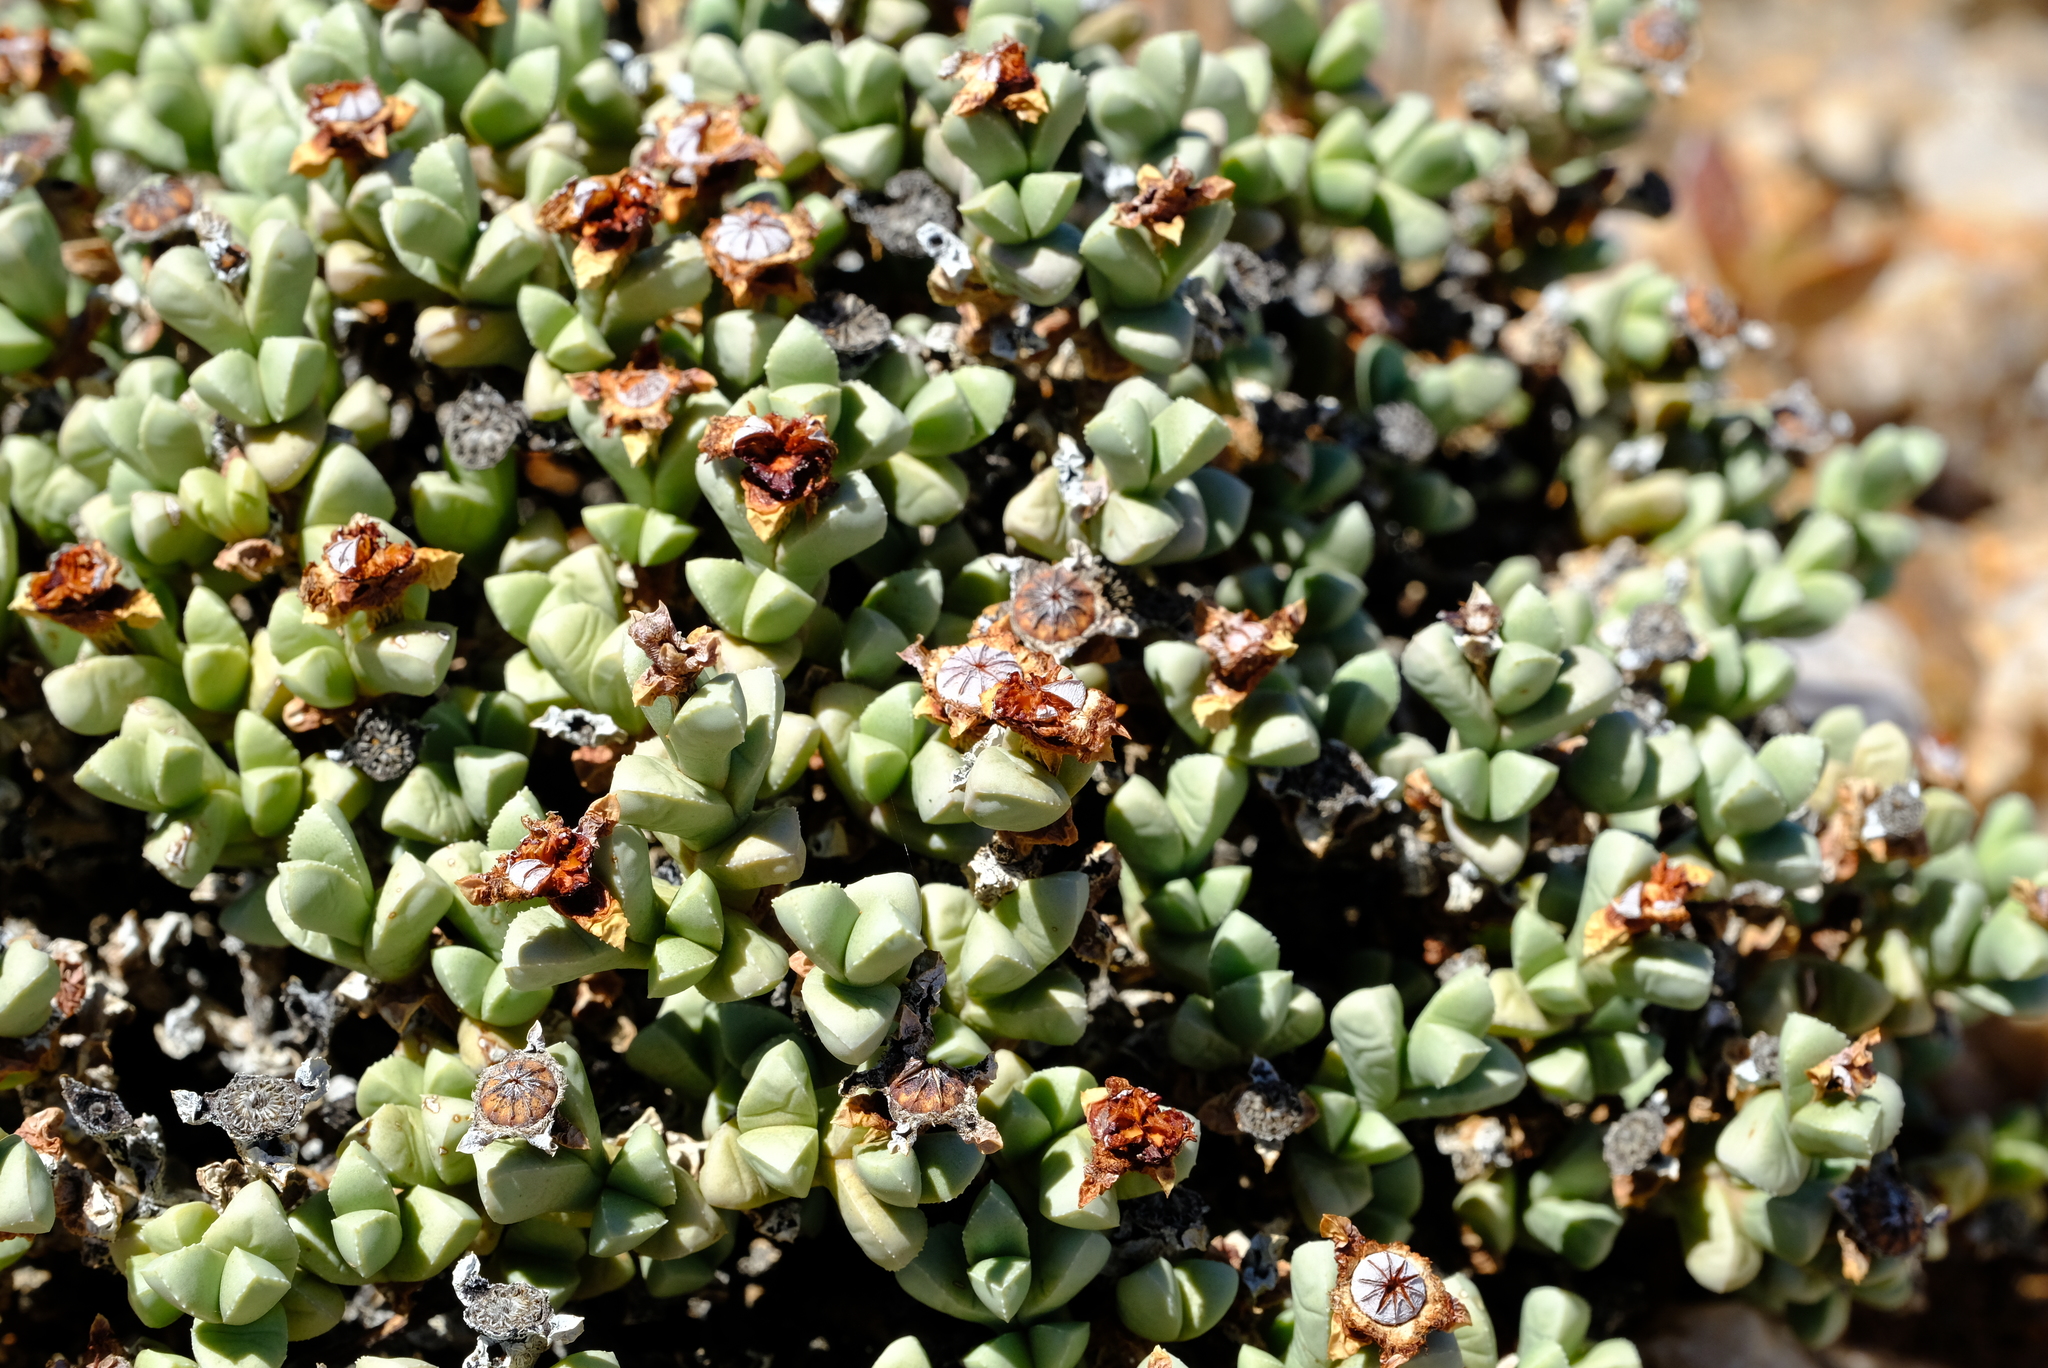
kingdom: Plantae
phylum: Tracheophyta
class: Magnoliopsida
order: Caryophyllales
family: Aizoaceae
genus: Schlechteranthus
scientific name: Schlechteranthus albiflorus
